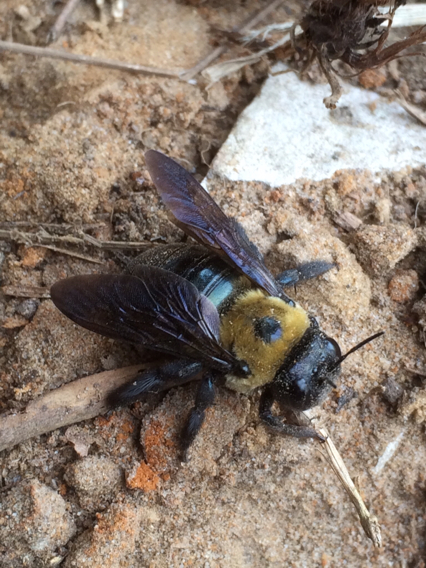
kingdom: Animalia
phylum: Arthropoda
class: Insecta
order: Hymenoptera
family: Apidae
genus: Xylocopa
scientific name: Xylocopa virginica
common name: Carpenter bee
